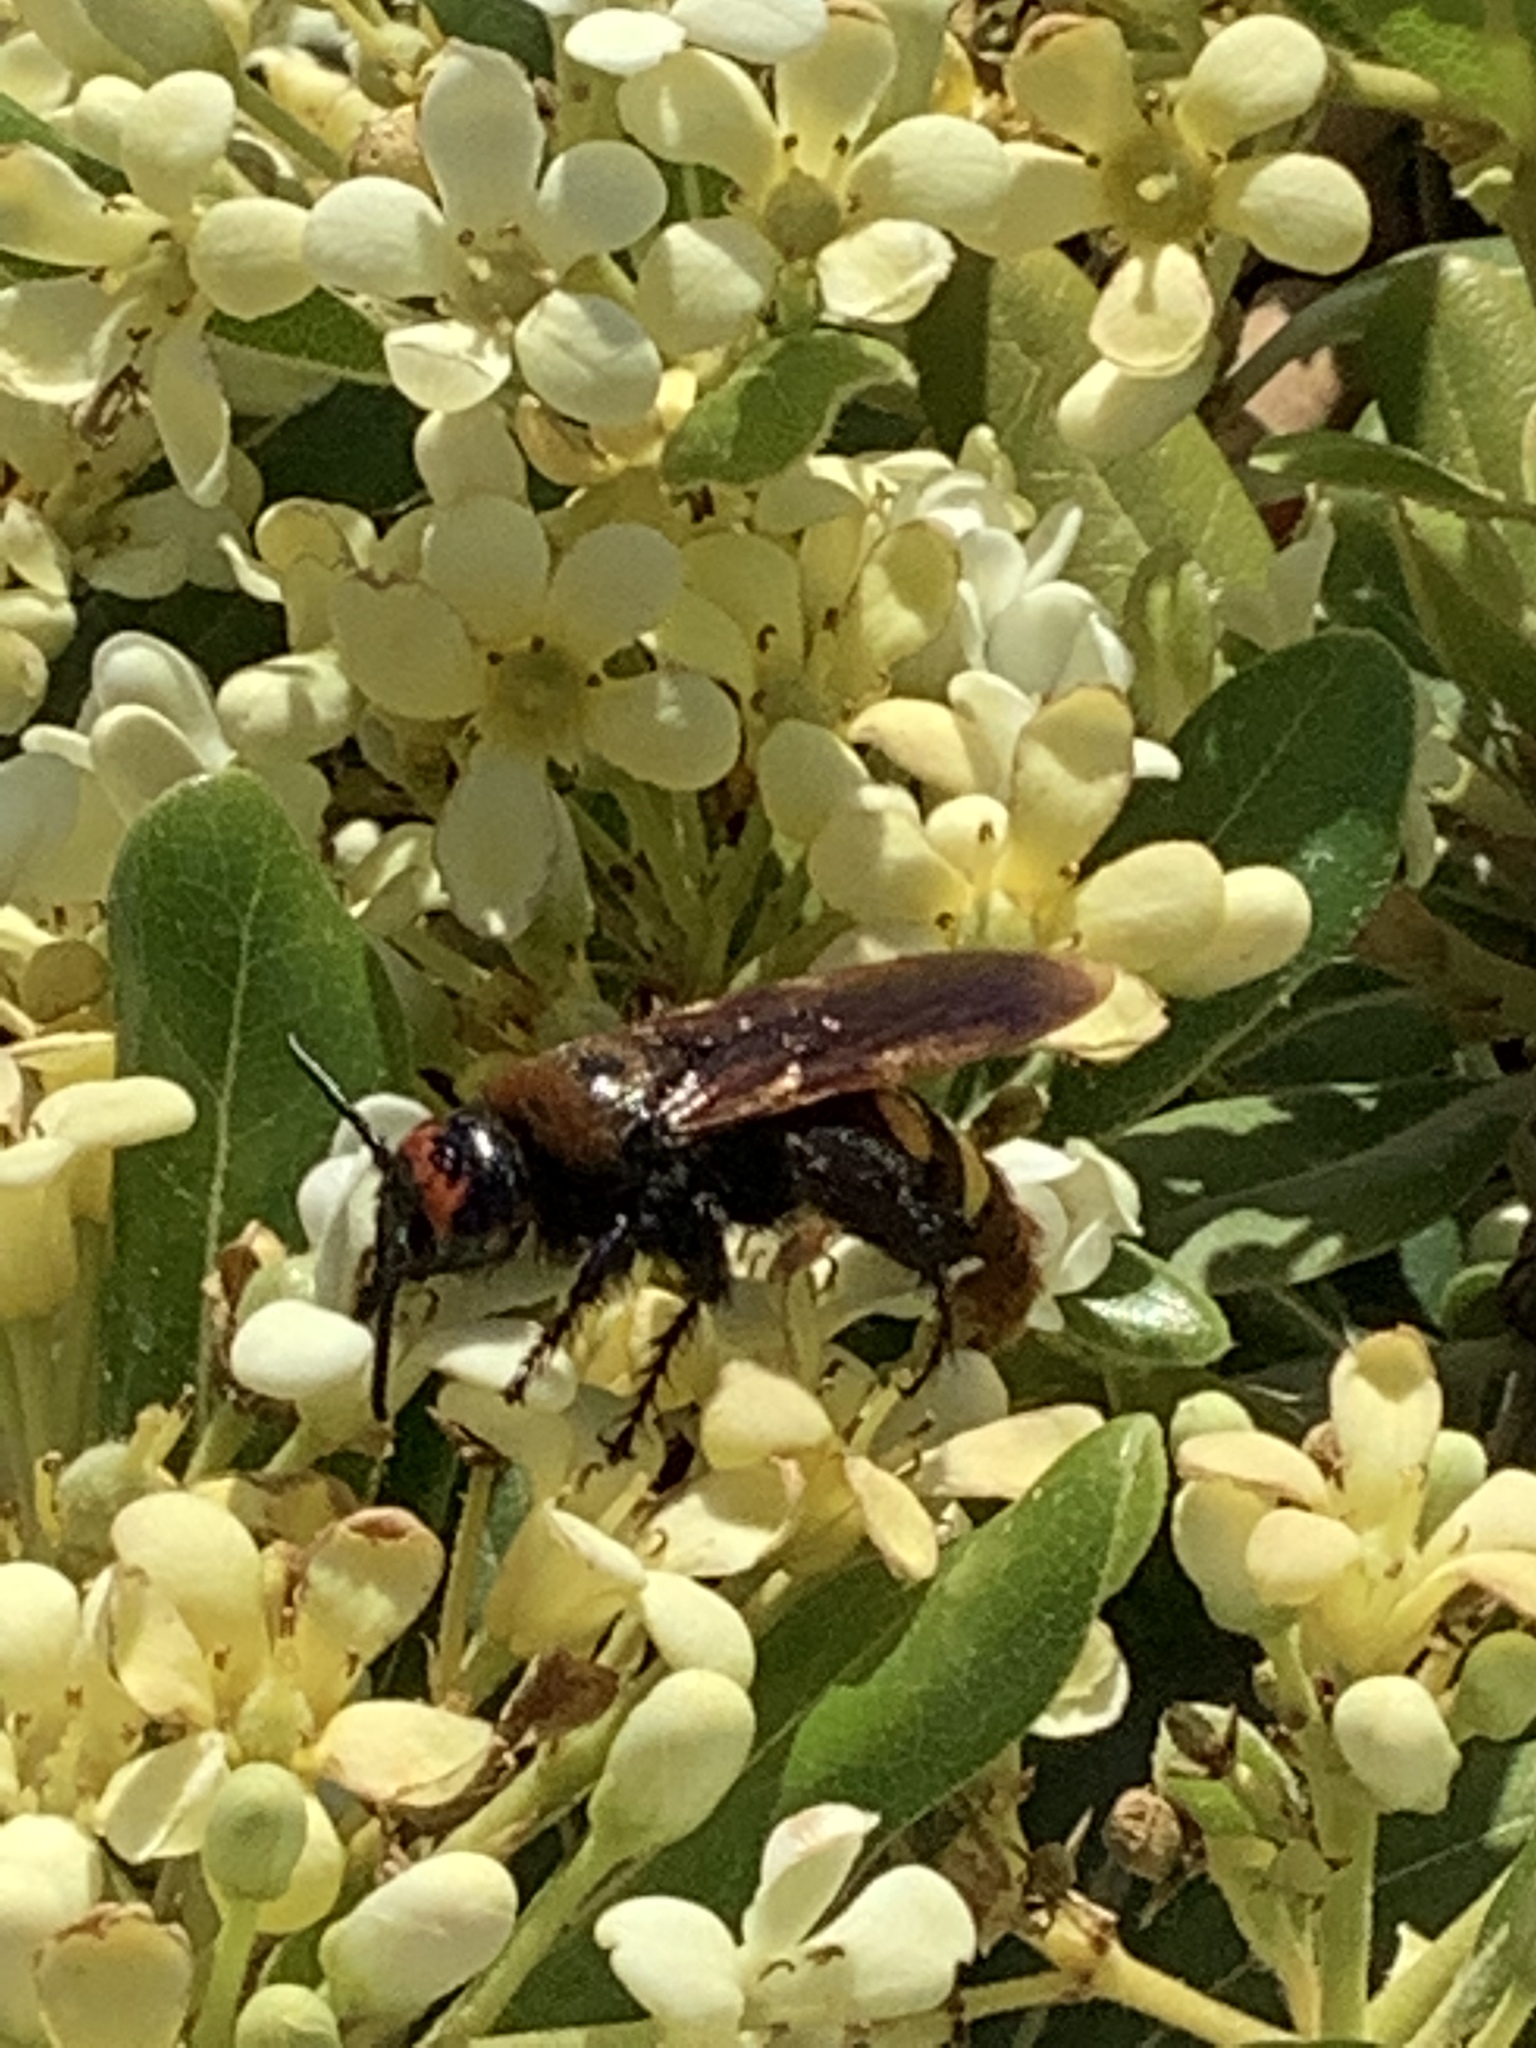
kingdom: Animalia
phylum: Arthropoda
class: Insecta
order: Hymenoptera
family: Scoliidae
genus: Megascolia
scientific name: Megascolia maculata
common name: Mammoth wasp
